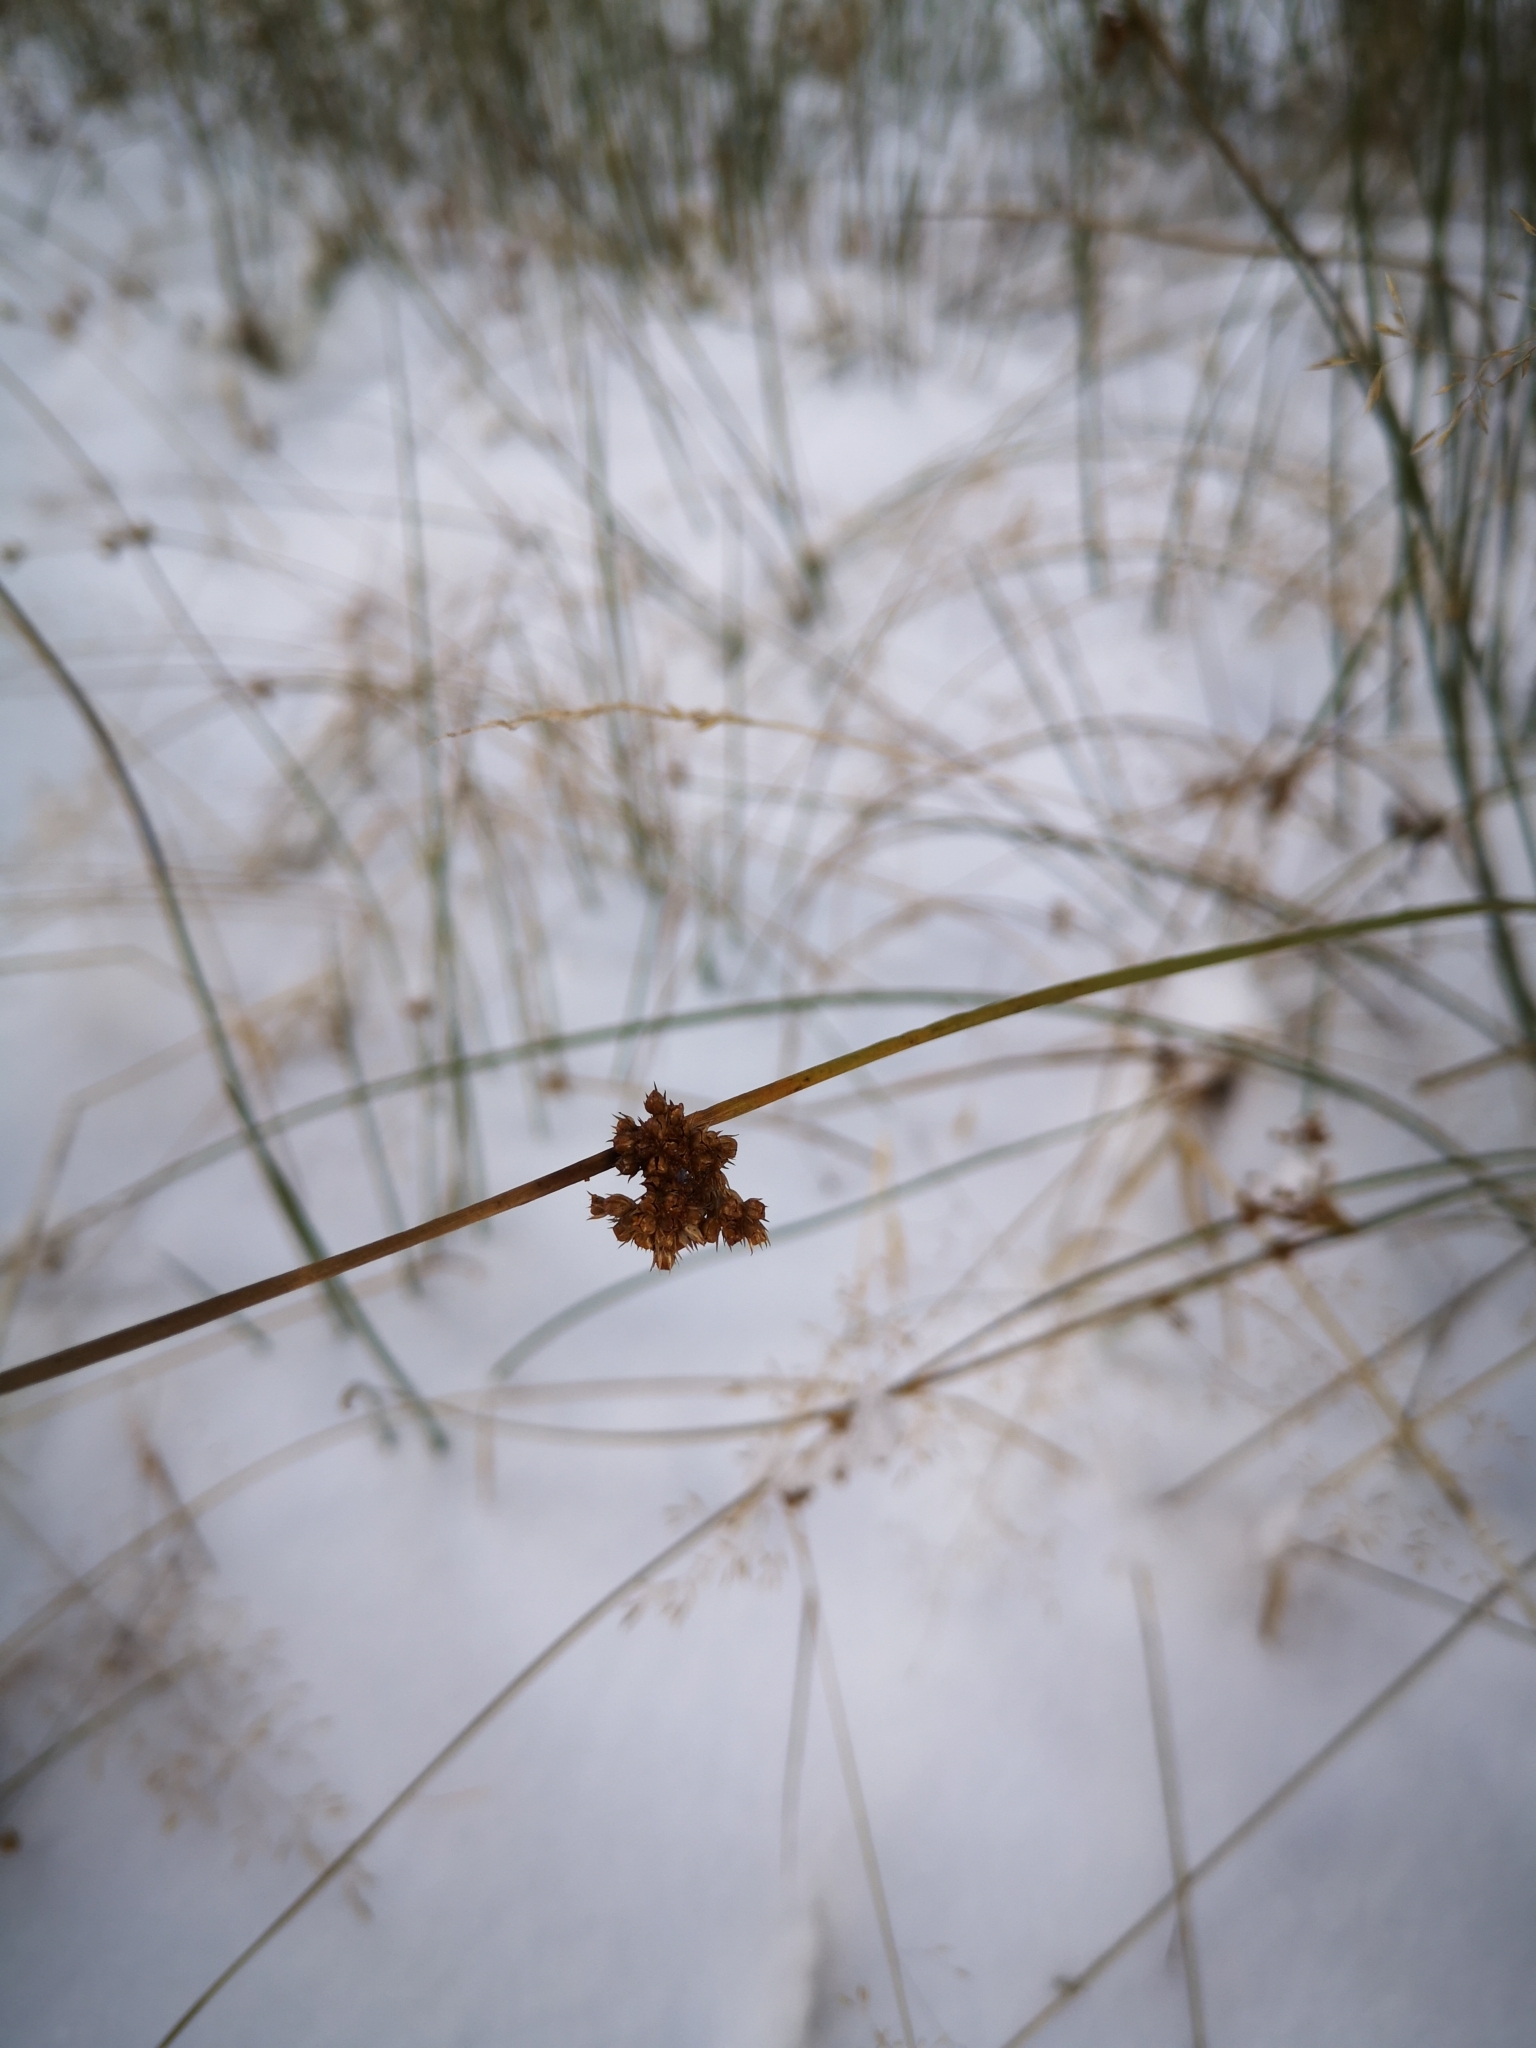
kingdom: Plantae
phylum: Tracheophyta
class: Liliopsida
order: Poales
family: Juncaceae
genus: Juncus
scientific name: Juncus effusus
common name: Soft rush
